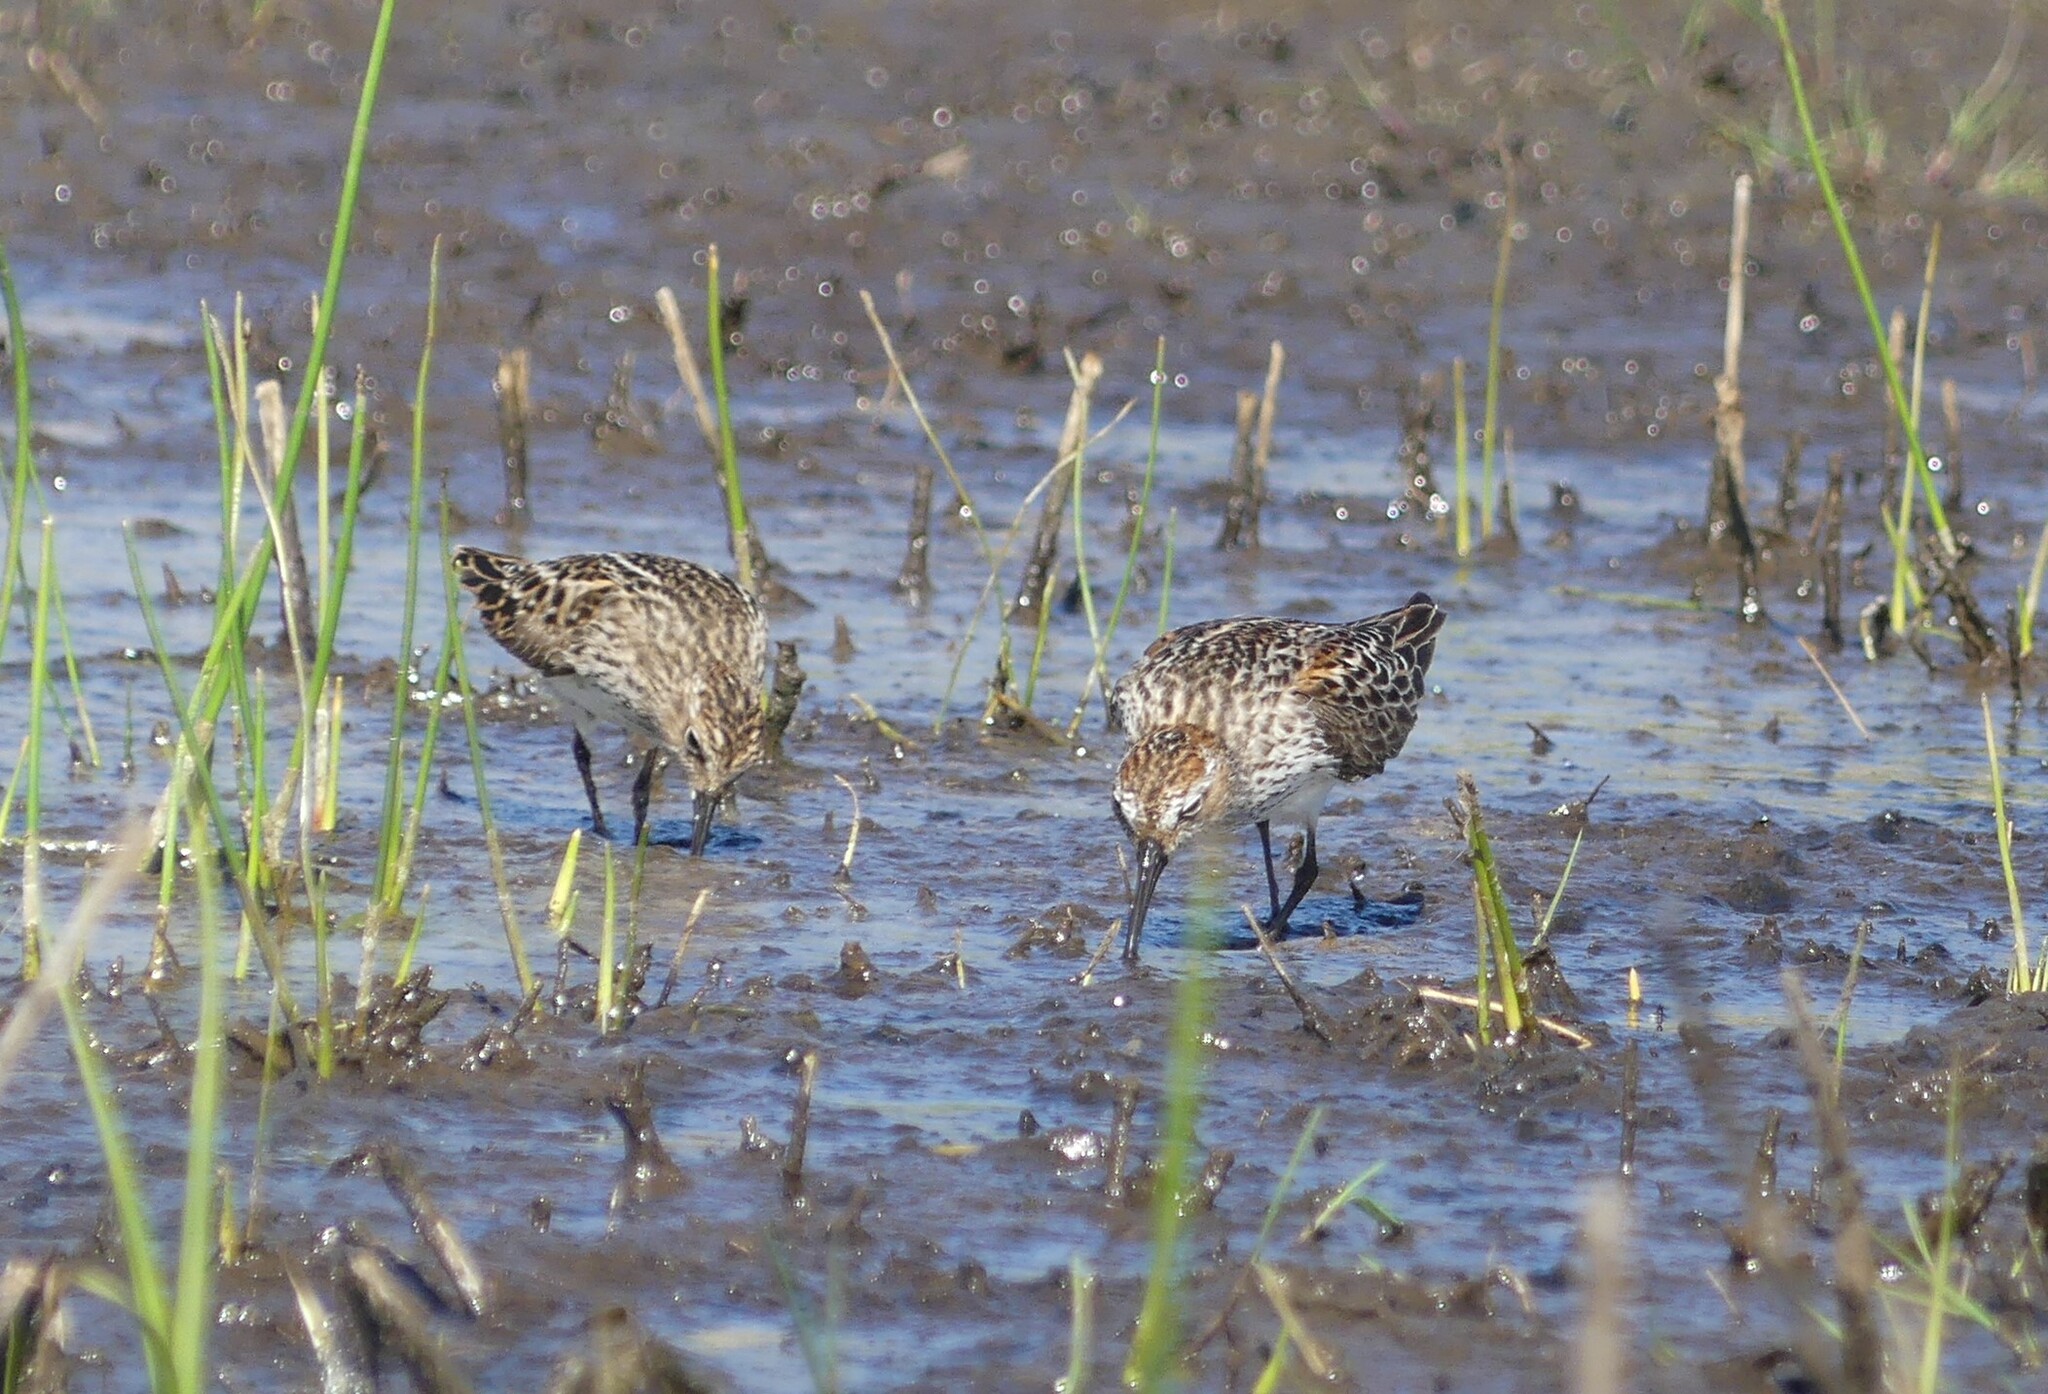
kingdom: Animalia
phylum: Chordata
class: Aves
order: Charadriiformes
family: Scolopacidae
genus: Calidris
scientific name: Calidris minutilla
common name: Least sandpiper
